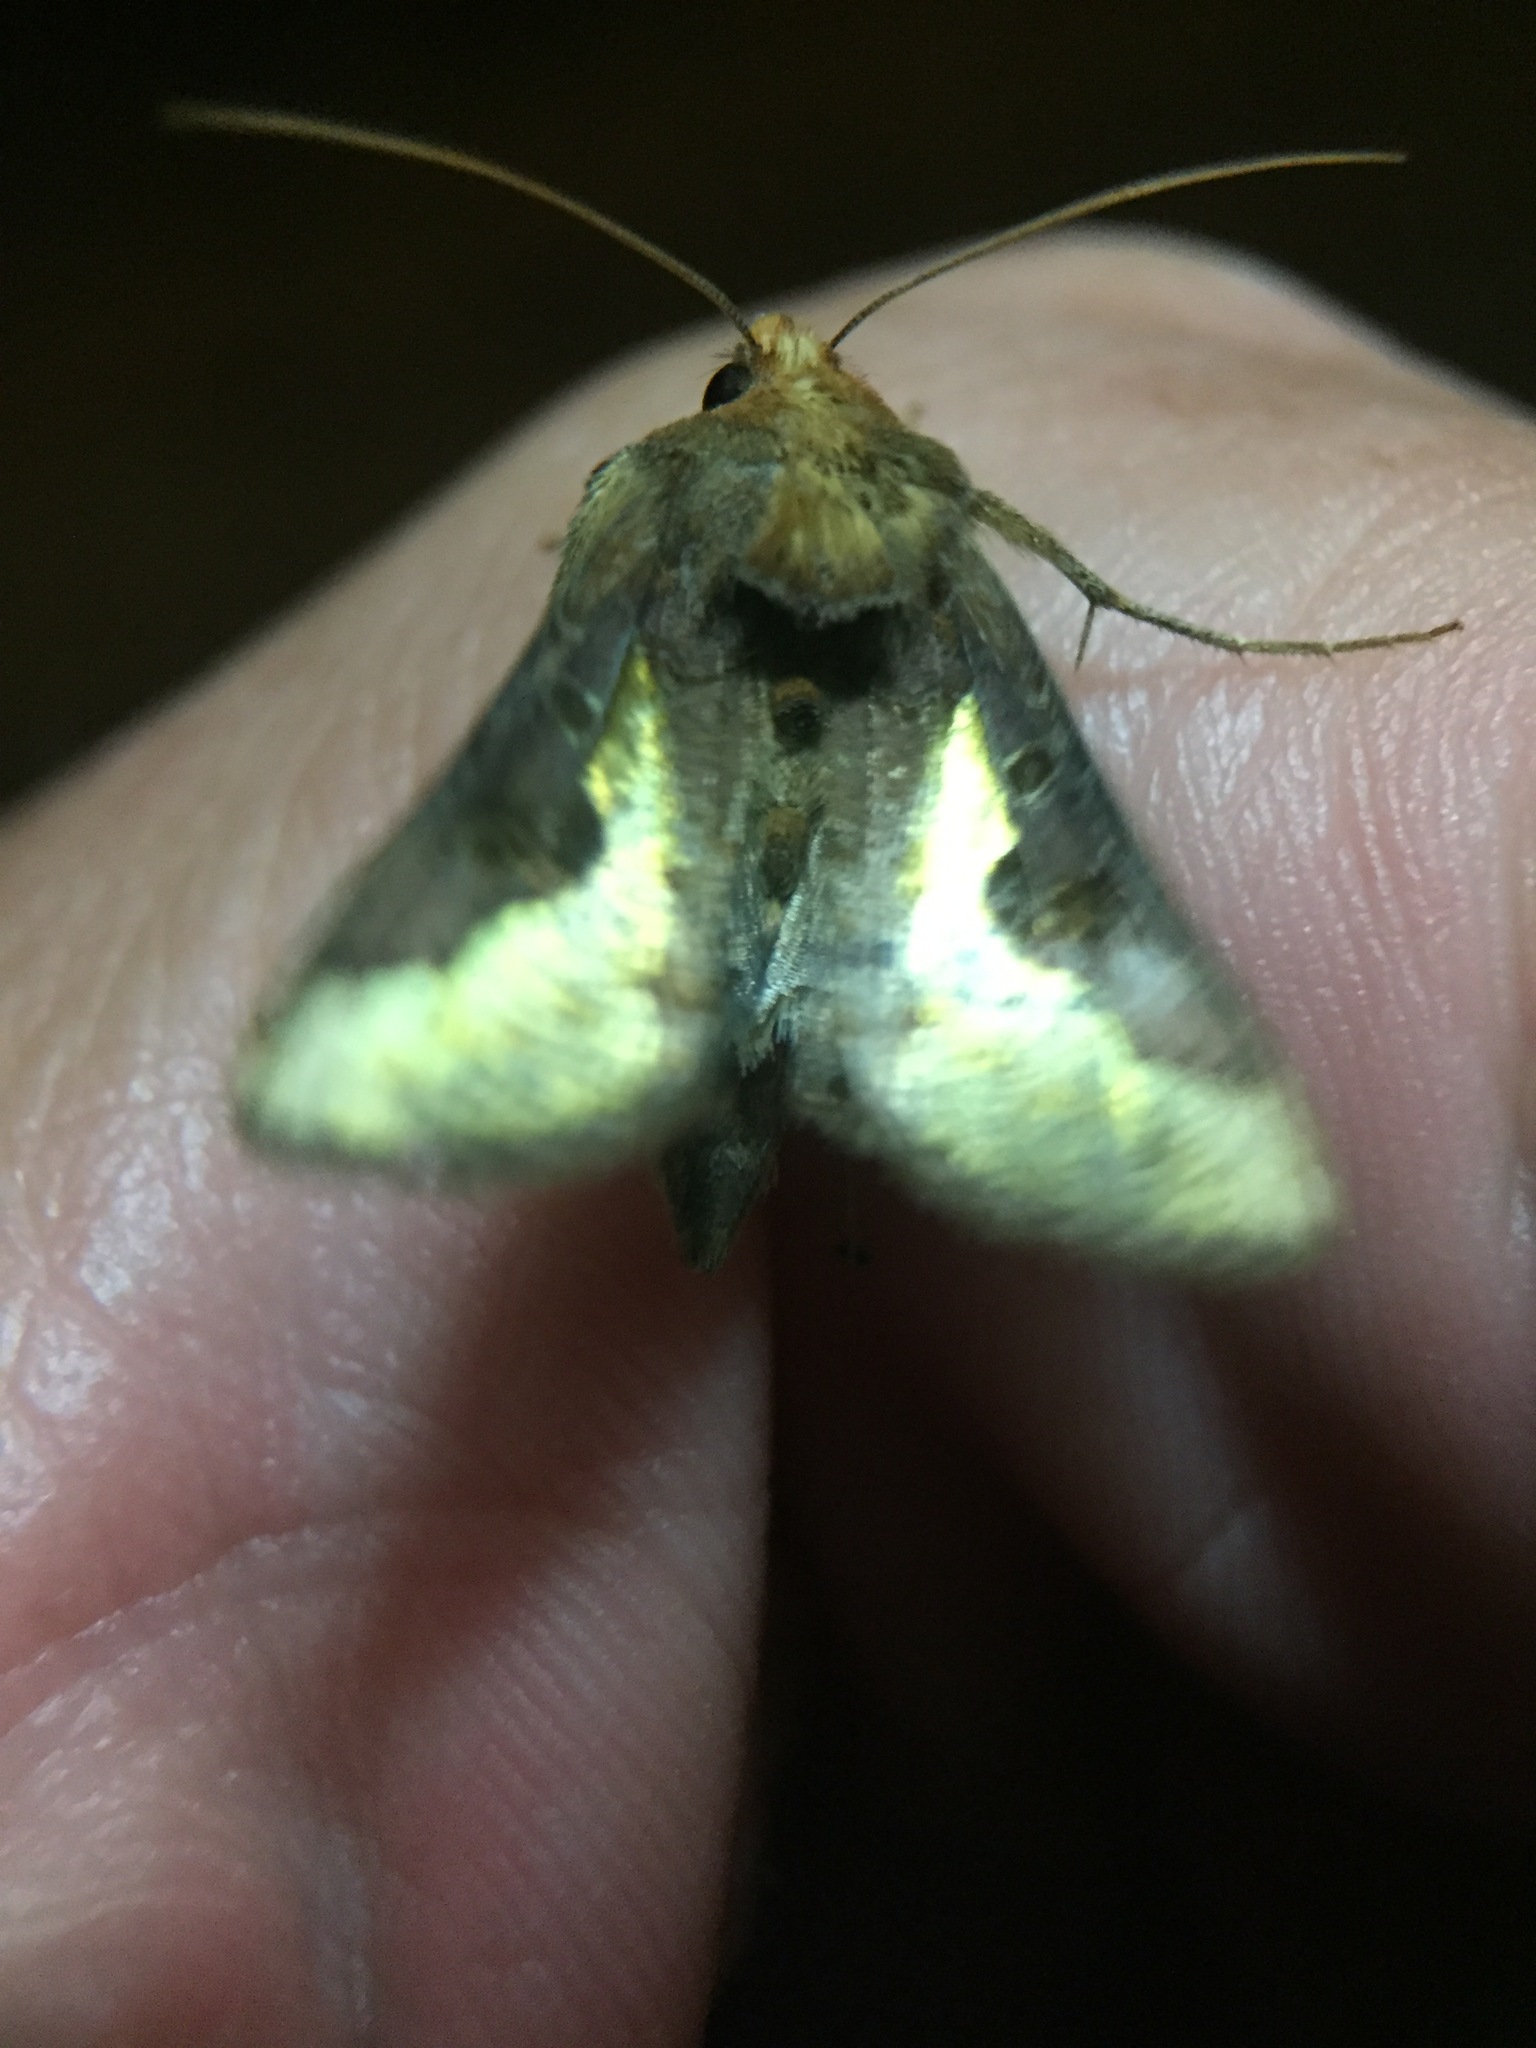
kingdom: Animalia
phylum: Arthropoda
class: Insecta
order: Lepidoptera
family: Noctuidae
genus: Thysanoplusia
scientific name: Thysanoplusia orichalcea
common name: Slender burnished brass, golden plusia
